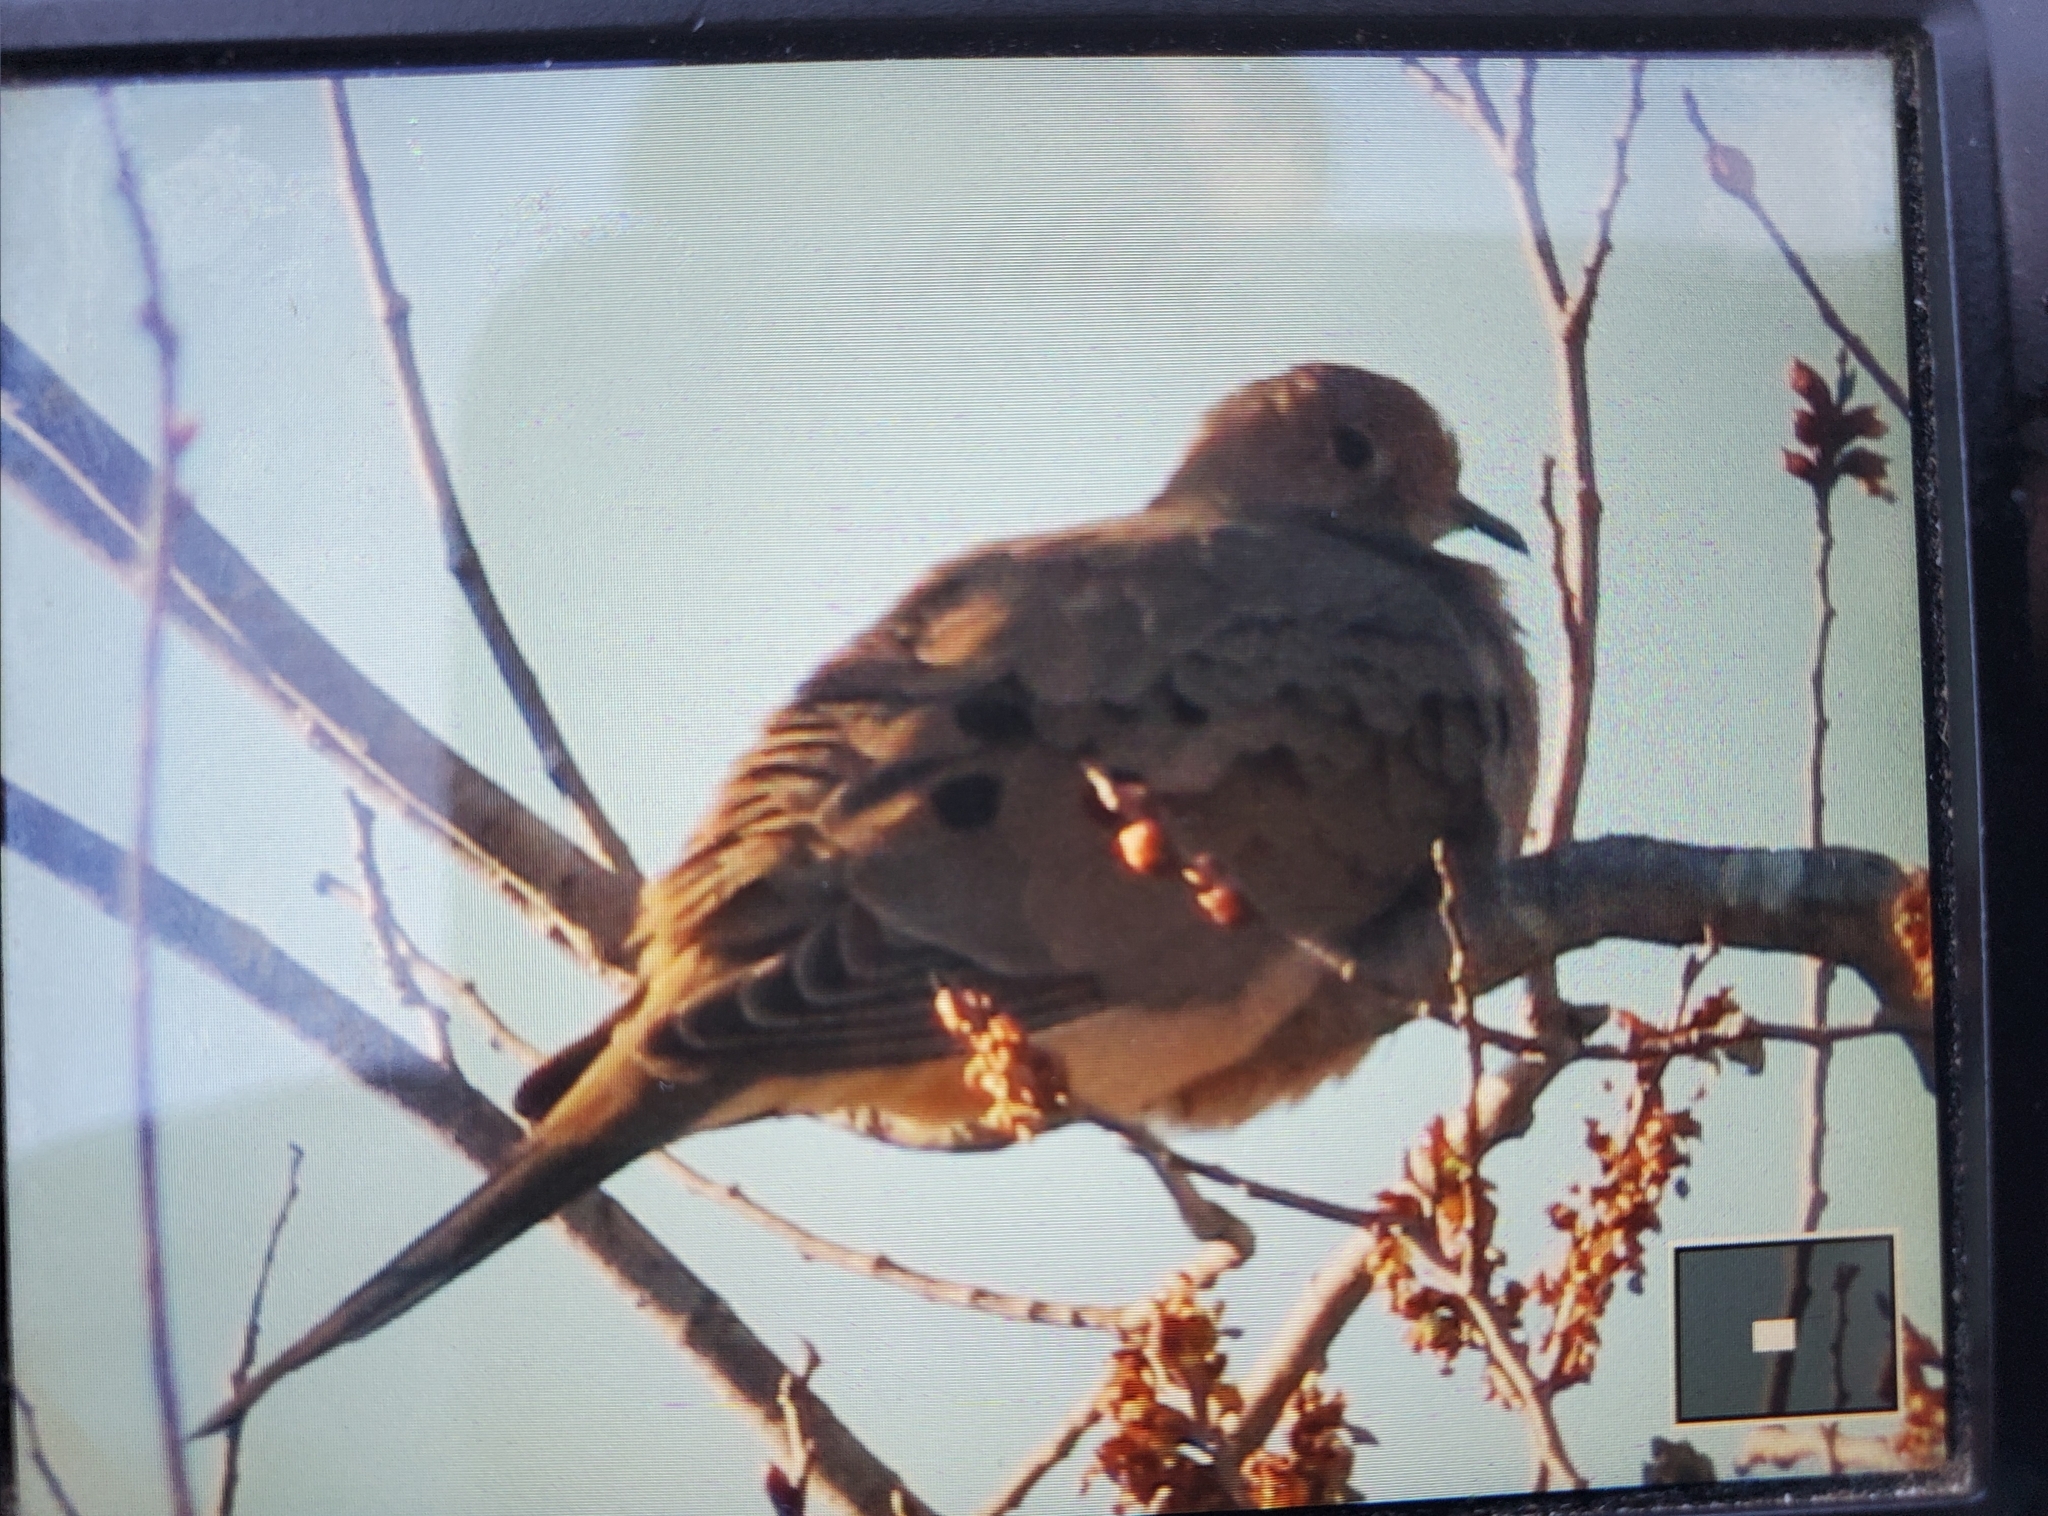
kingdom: Animalia
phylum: Chordata
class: Aves
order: Columbiformes
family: Columbidae
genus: Zenaida
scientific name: Zenaida macroura
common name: Mourning dove
